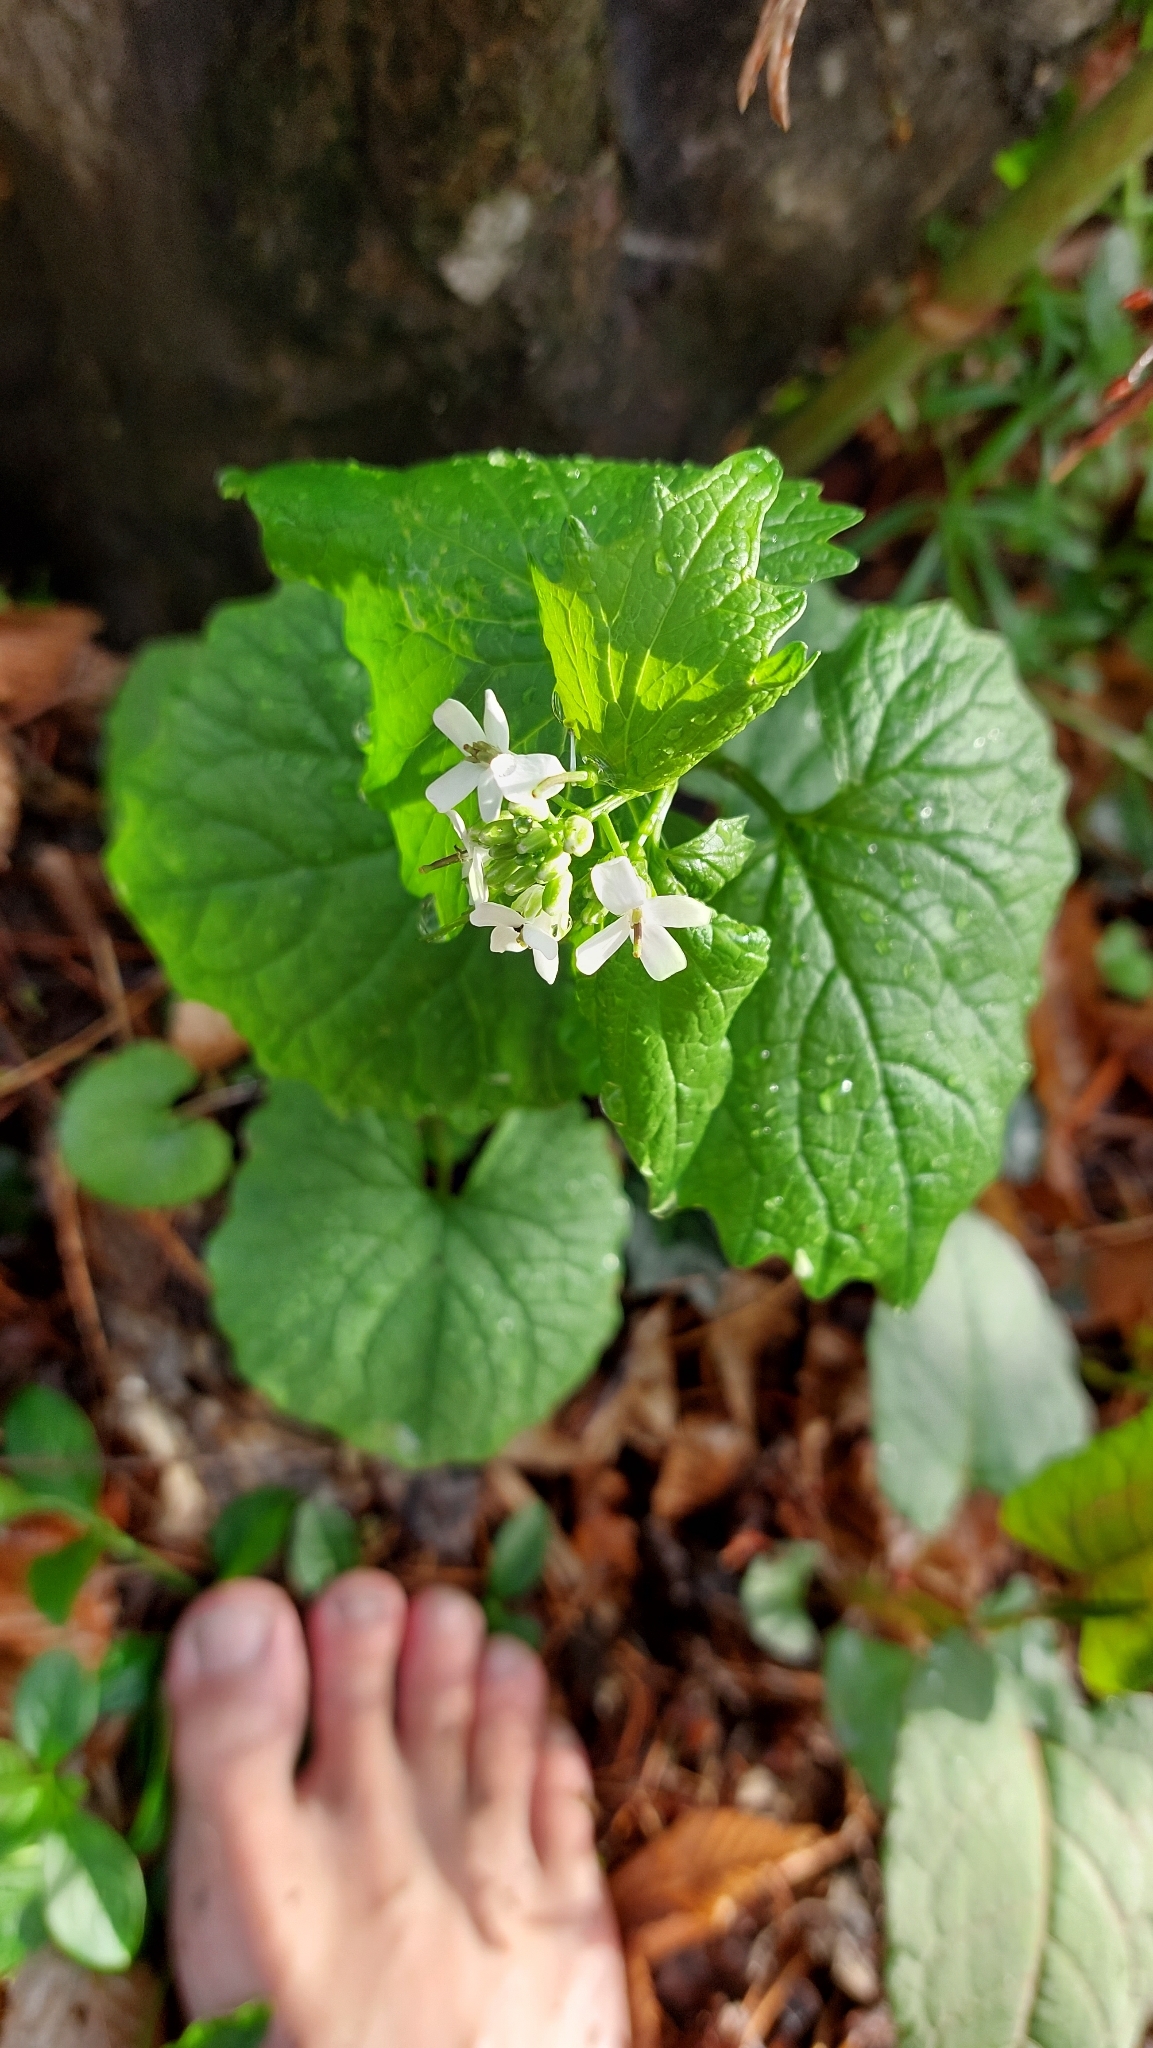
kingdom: Plantae
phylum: Tracheophyta
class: Magnoliopsida
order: Brassicales
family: Brassicaceae
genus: Alliaria
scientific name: Alliaria petiolata
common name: Garlic mustard
